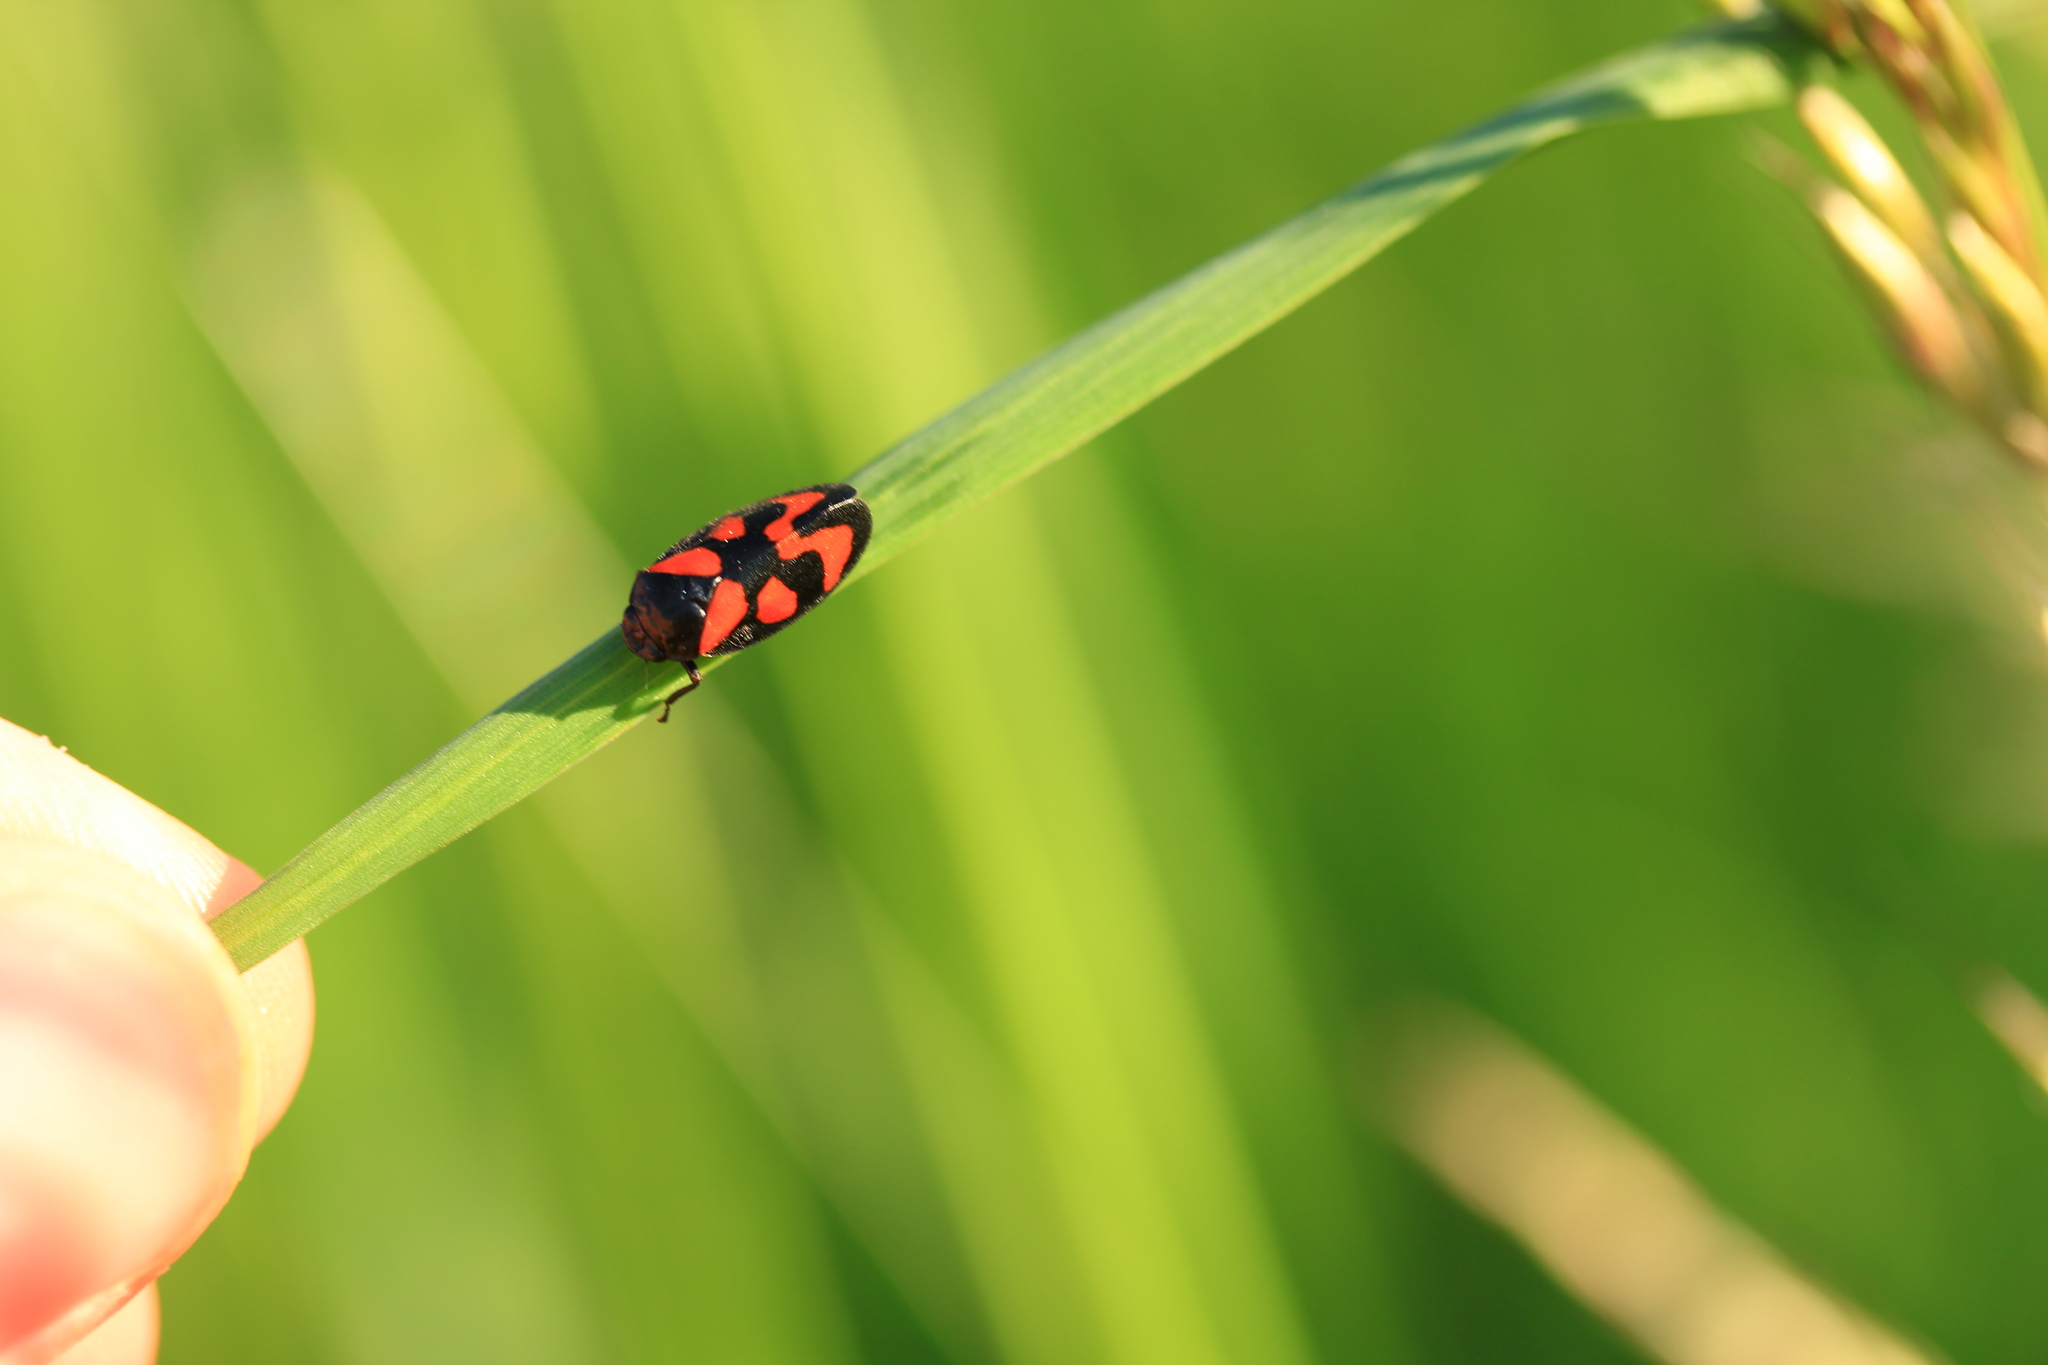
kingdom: Animalia
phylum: Arthropoda
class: Insecta
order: Hemiptera
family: Cercopidae
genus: Cercopis
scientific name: Cercopis vulnerata
